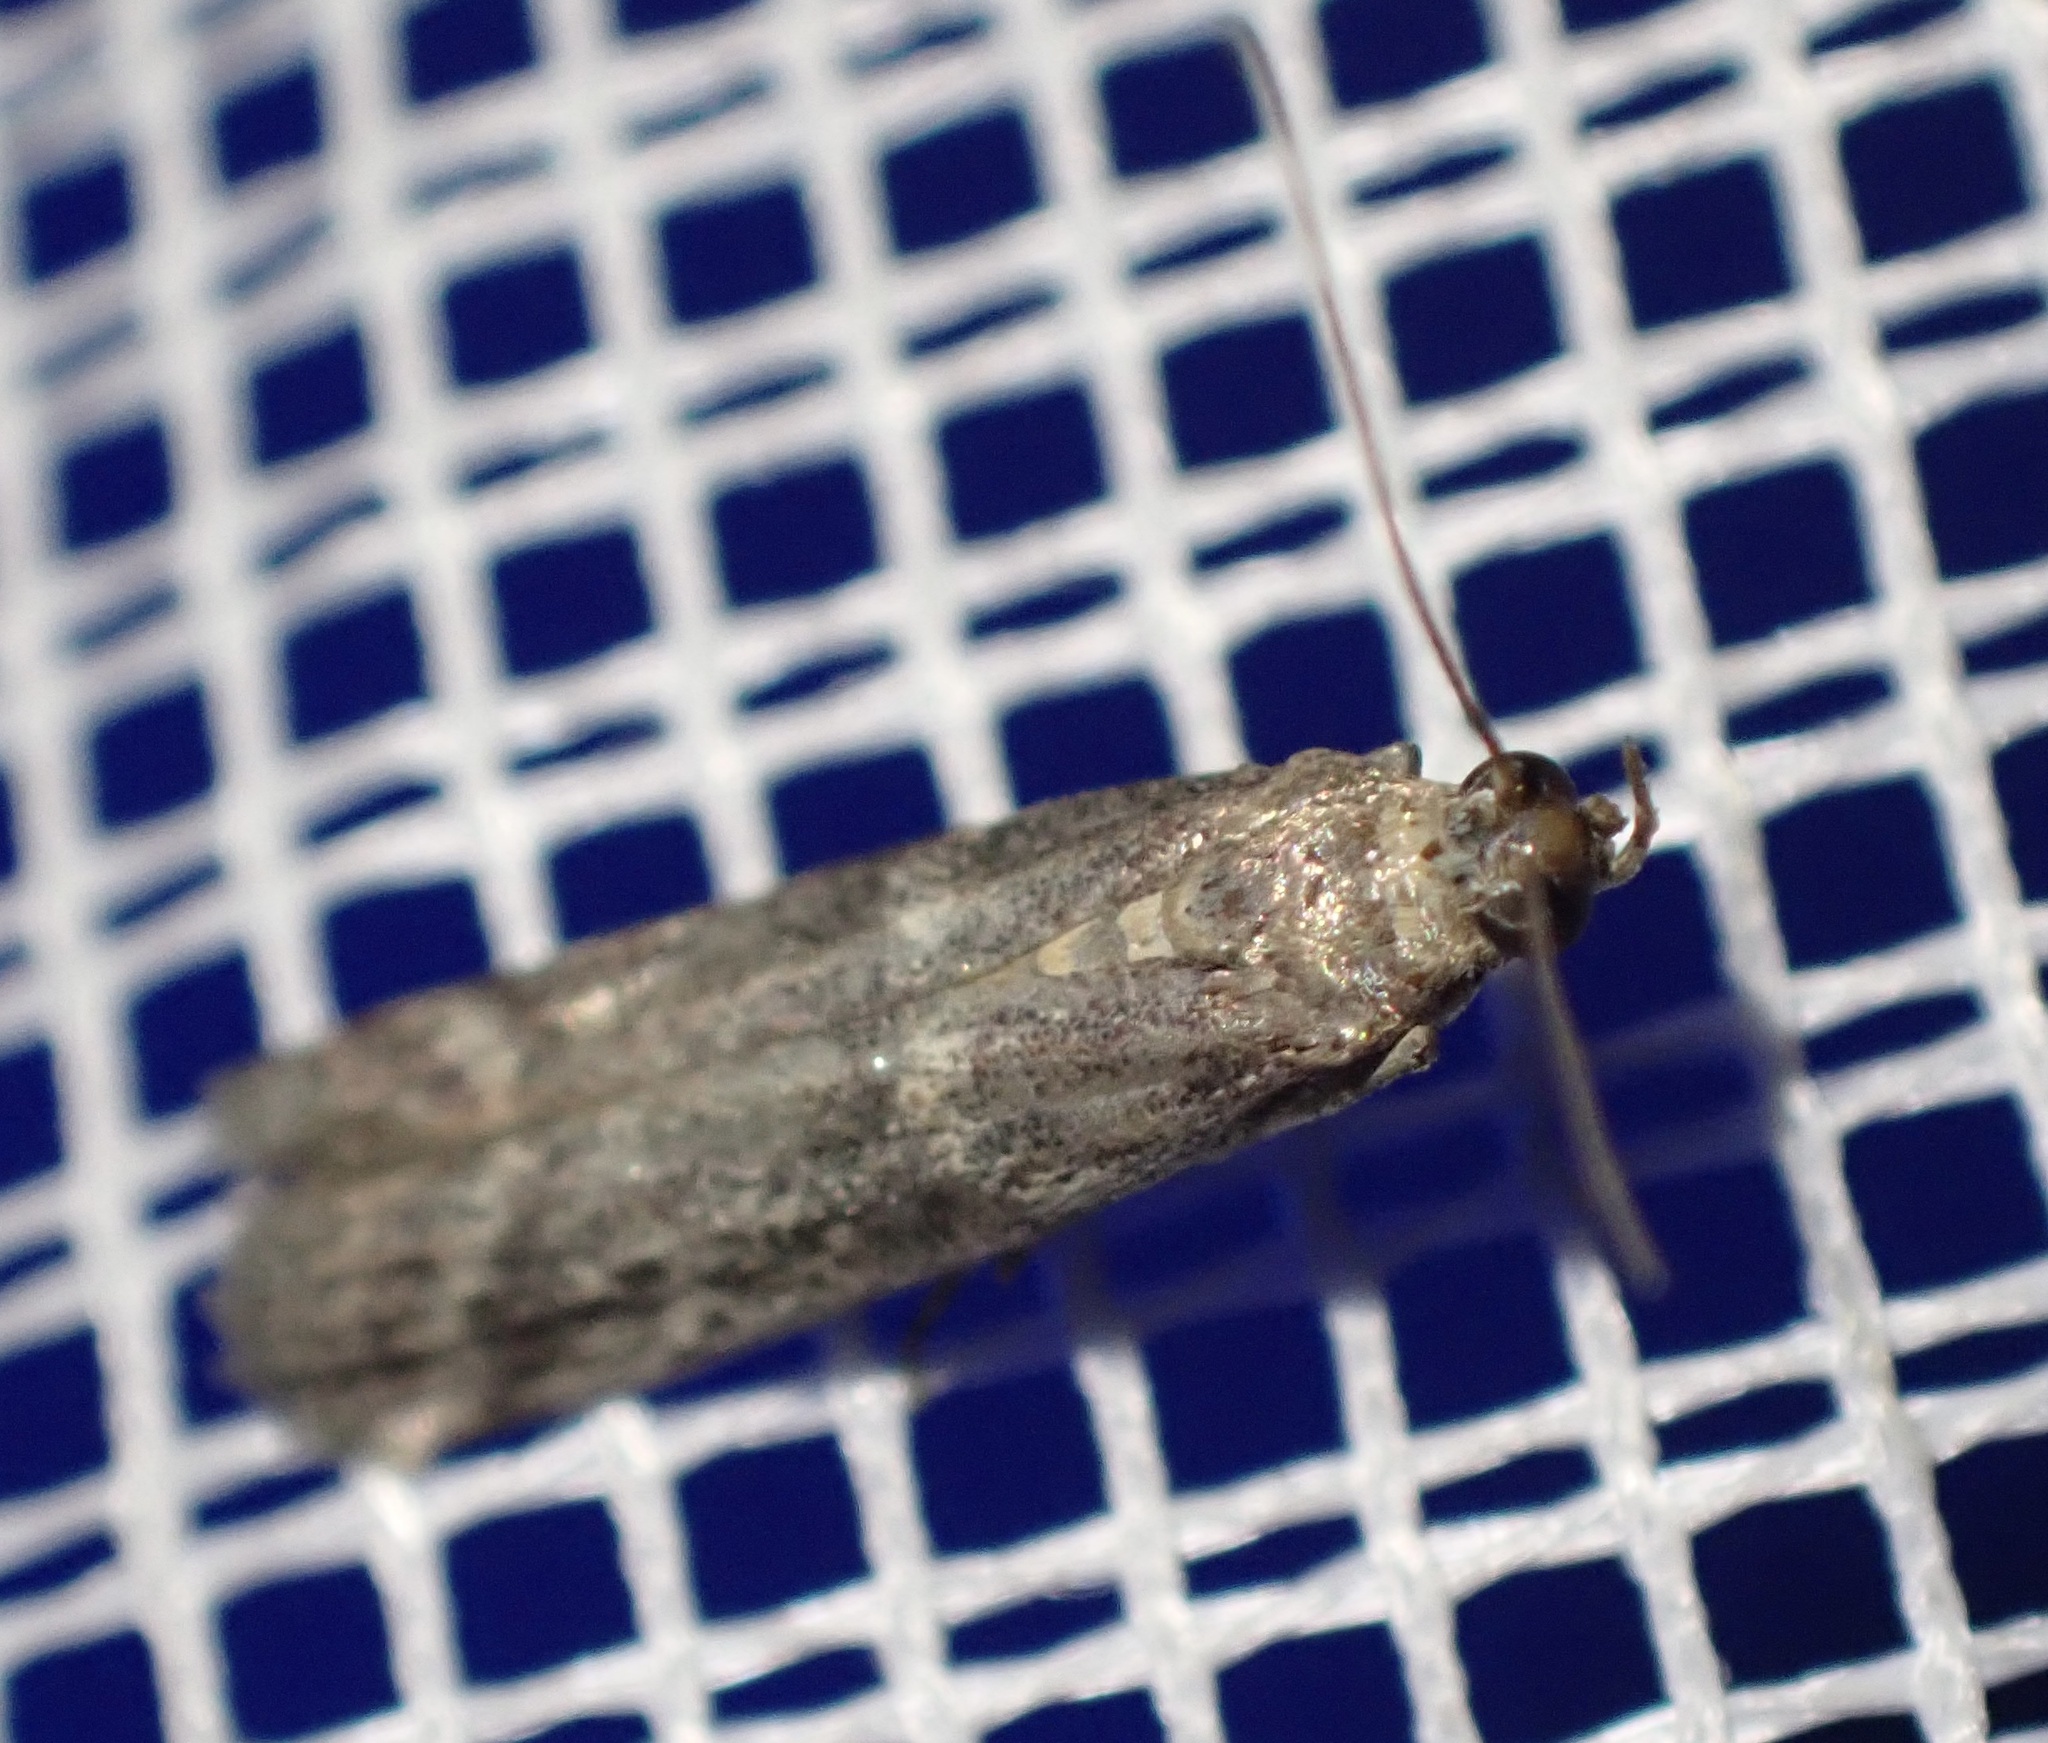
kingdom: Animalia
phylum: Arthropoda
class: Insecta
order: Lepidoptera
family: Pyralidae
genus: Cryptoblabes
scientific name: Cryptoblabes gnidiella
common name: Honeydew moth
